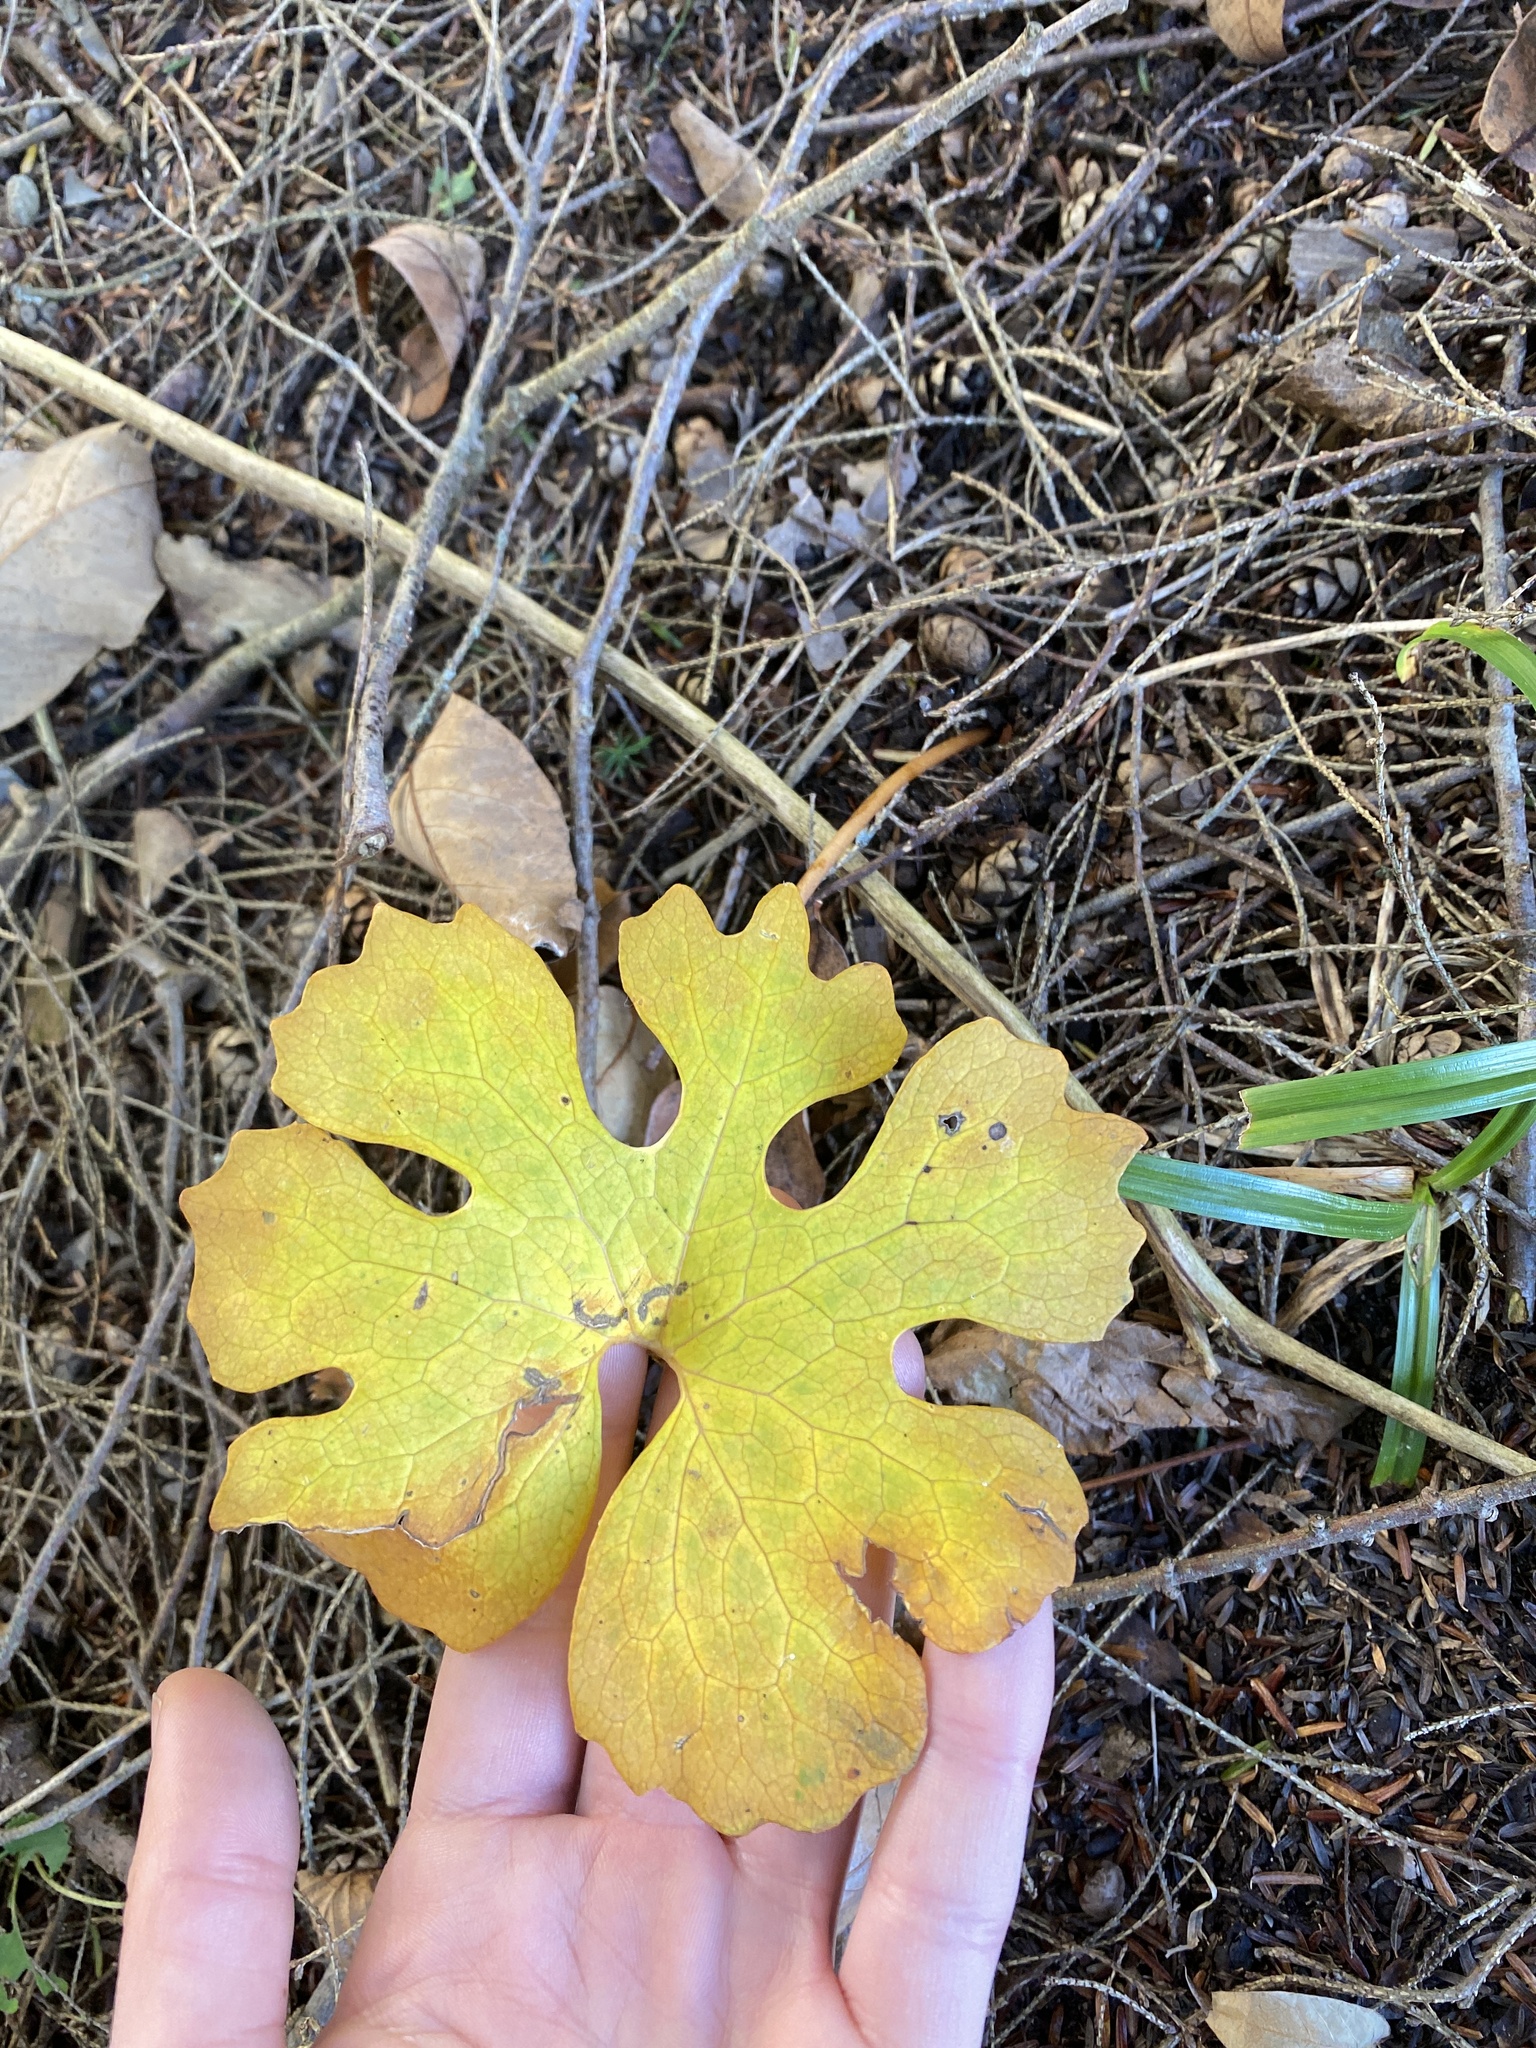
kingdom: Plantae
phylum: Tracheophyta
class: Magnoliopsida
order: Ranunculales
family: Papaveraceae
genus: Sanguinaria
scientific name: Sanguinaria canadensis
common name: Bloodroot
